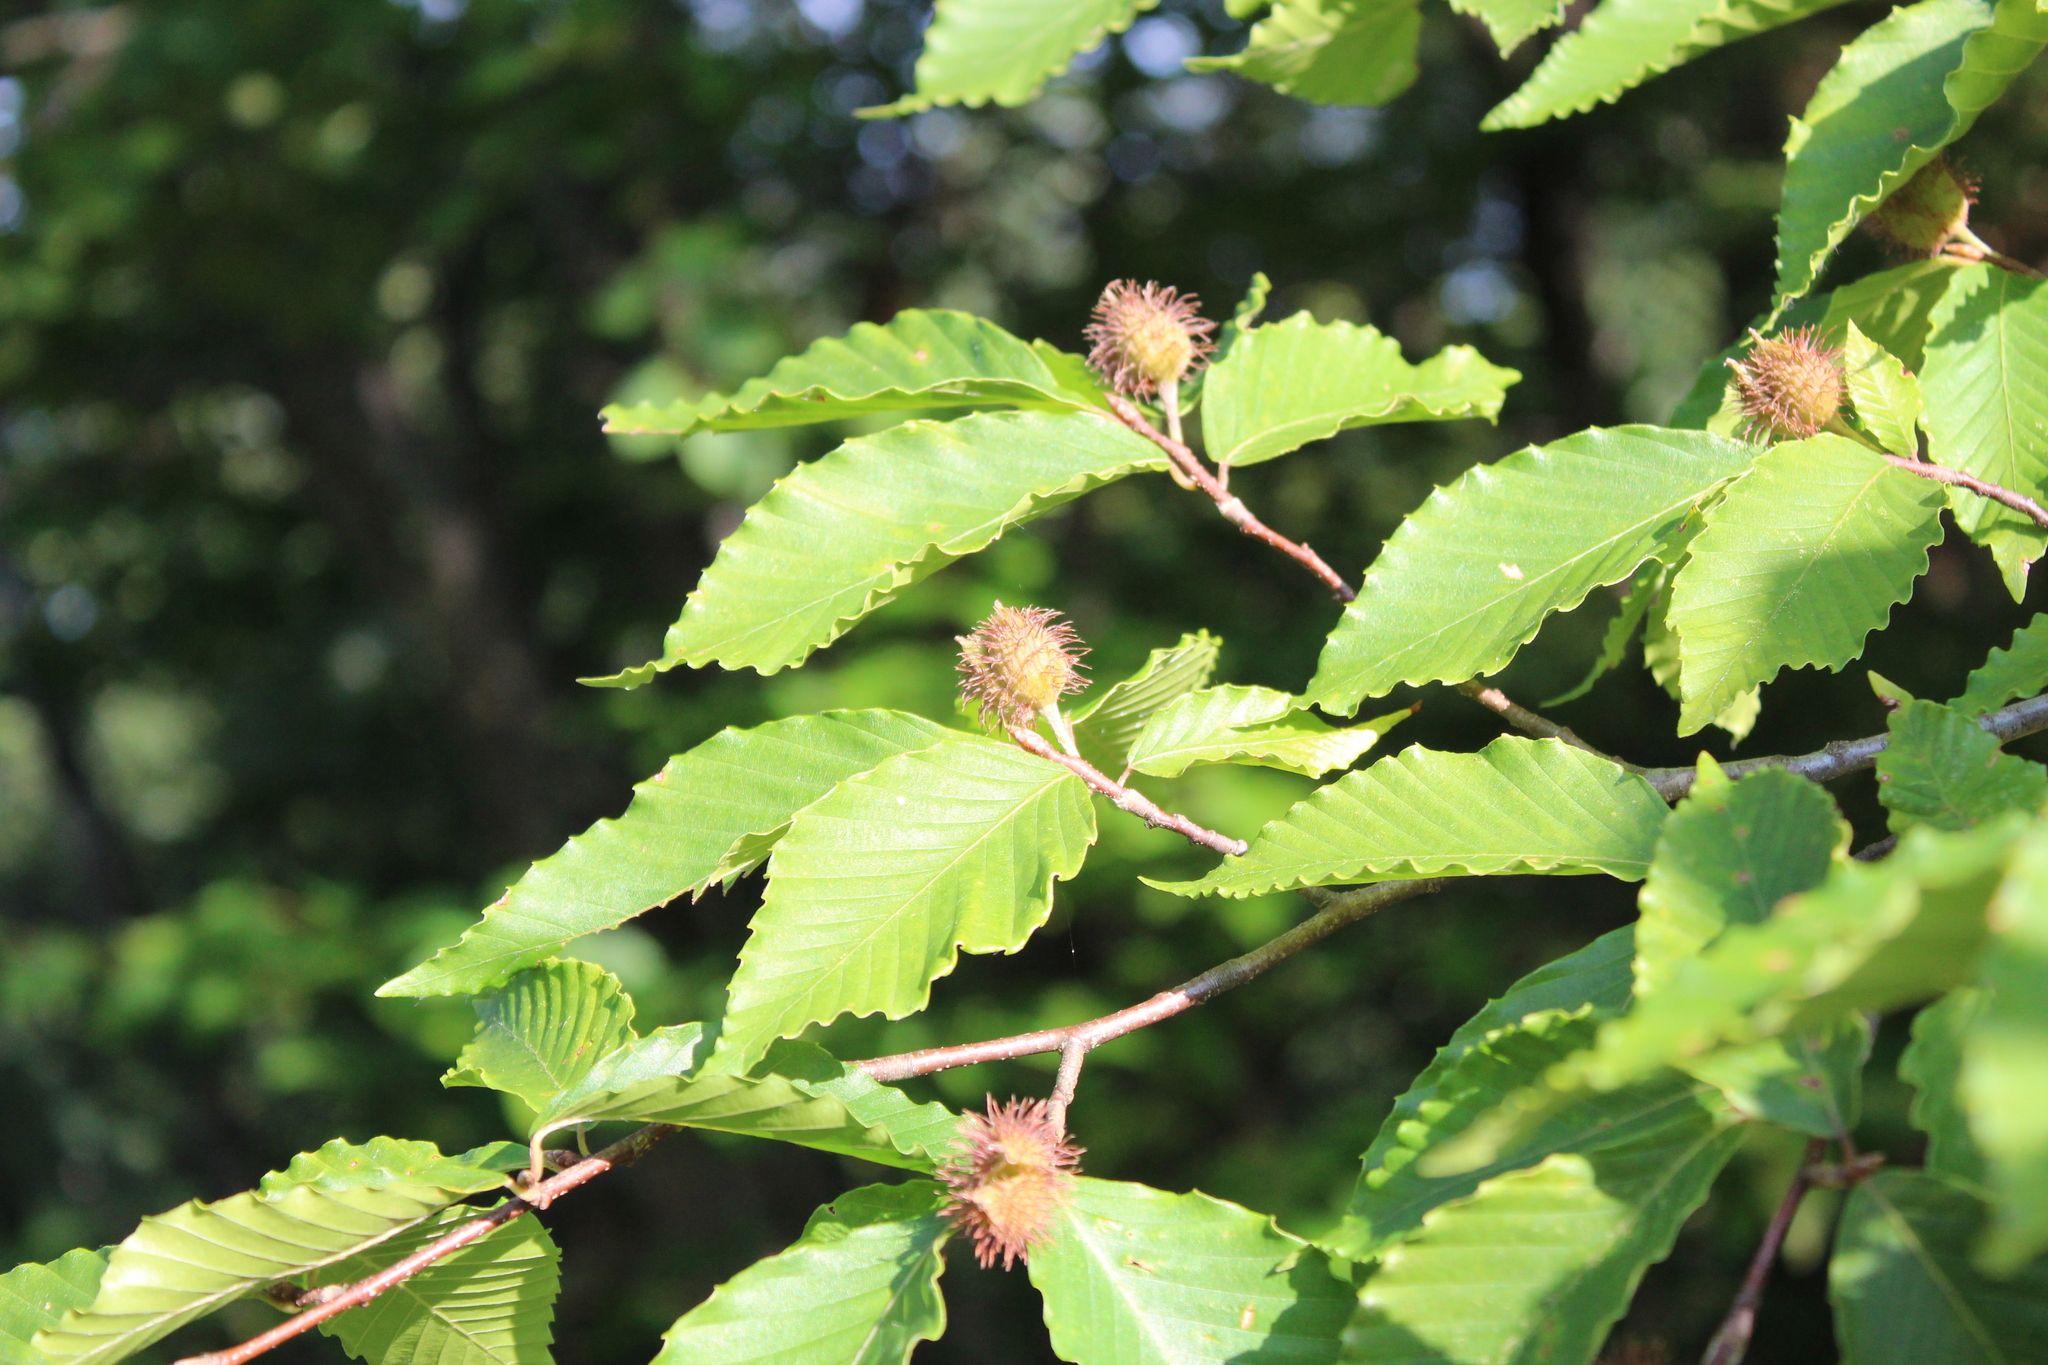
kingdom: Plantae
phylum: Tracheophyta
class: Magnoliopsida
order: Fagales
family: Fagaceae
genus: Fagus
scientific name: Fagus grandifolia
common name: American beech
